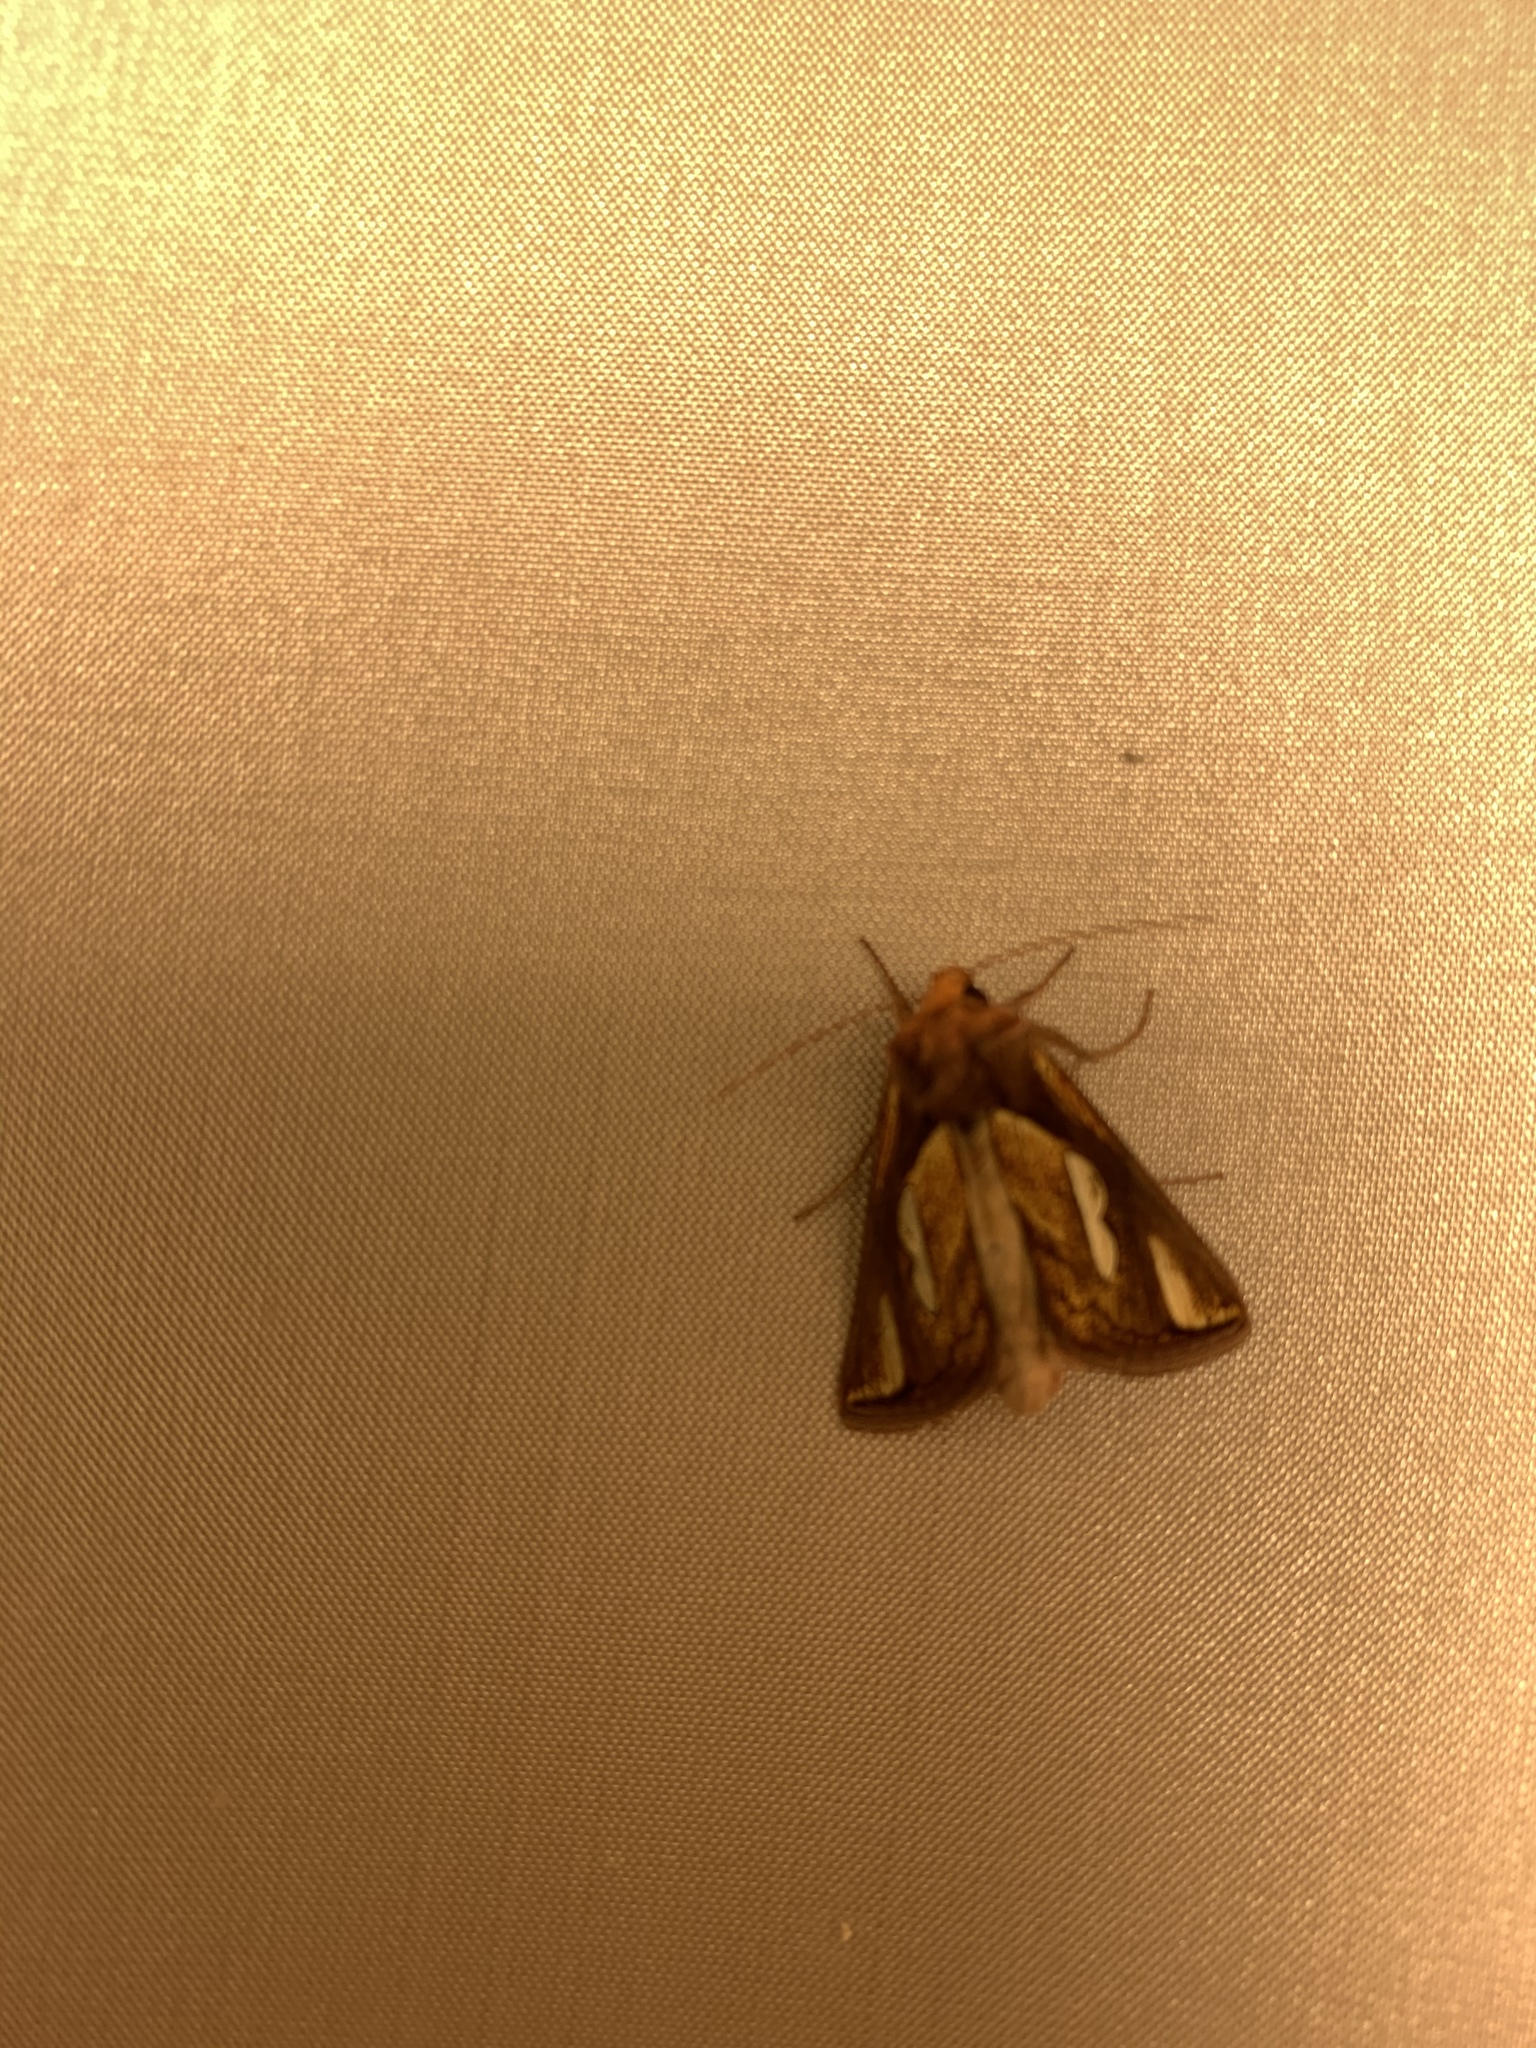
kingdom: Animalia
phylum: Arthropoda
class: Insecta
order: Lepidoptera
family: Noctuidae
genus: Plusia
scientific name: Plusia contexta
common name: Connected looper moth
